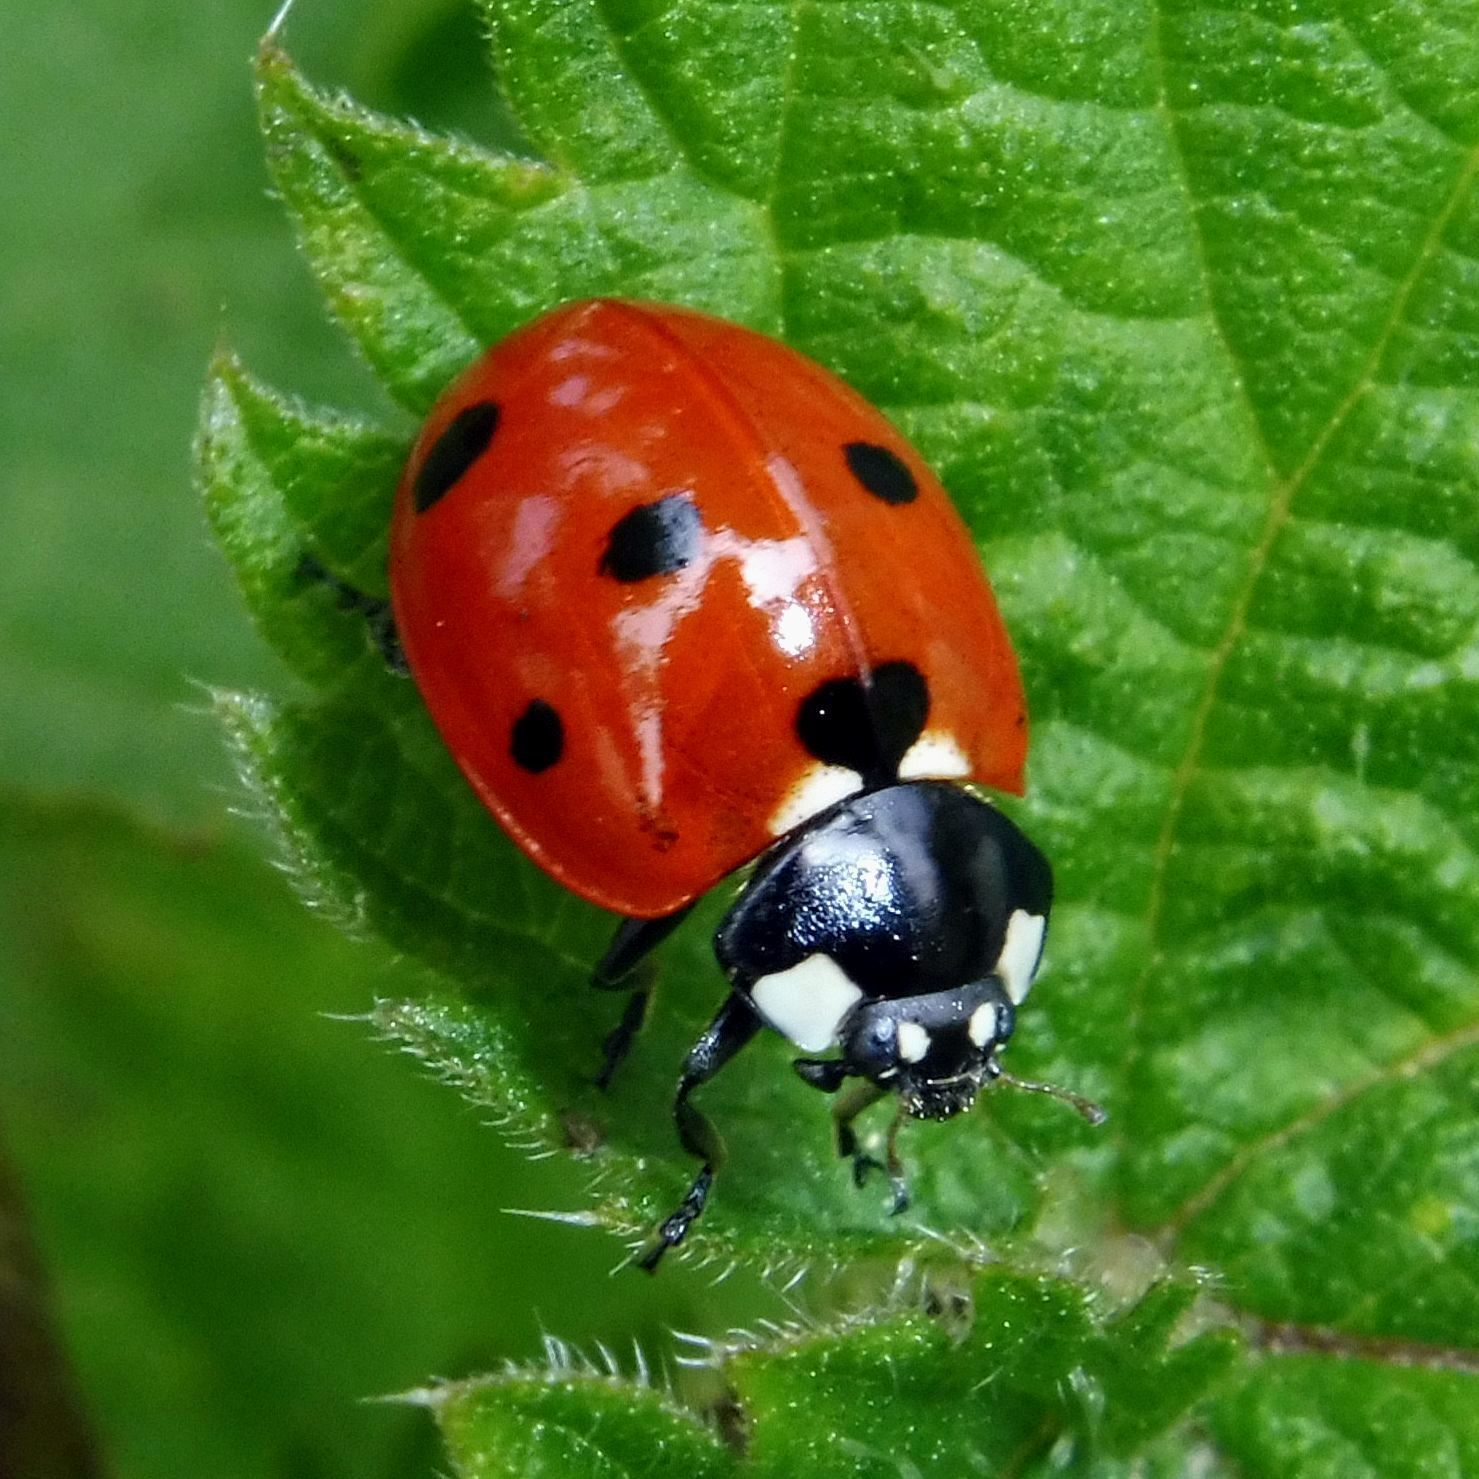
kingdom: Animalia
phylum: Arthropoda
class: Insecta
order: Coleoptera
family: Coccinellidae
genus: Coccinella
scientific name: Coccinella septempunctata
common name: Sevenspotted lady beetle
